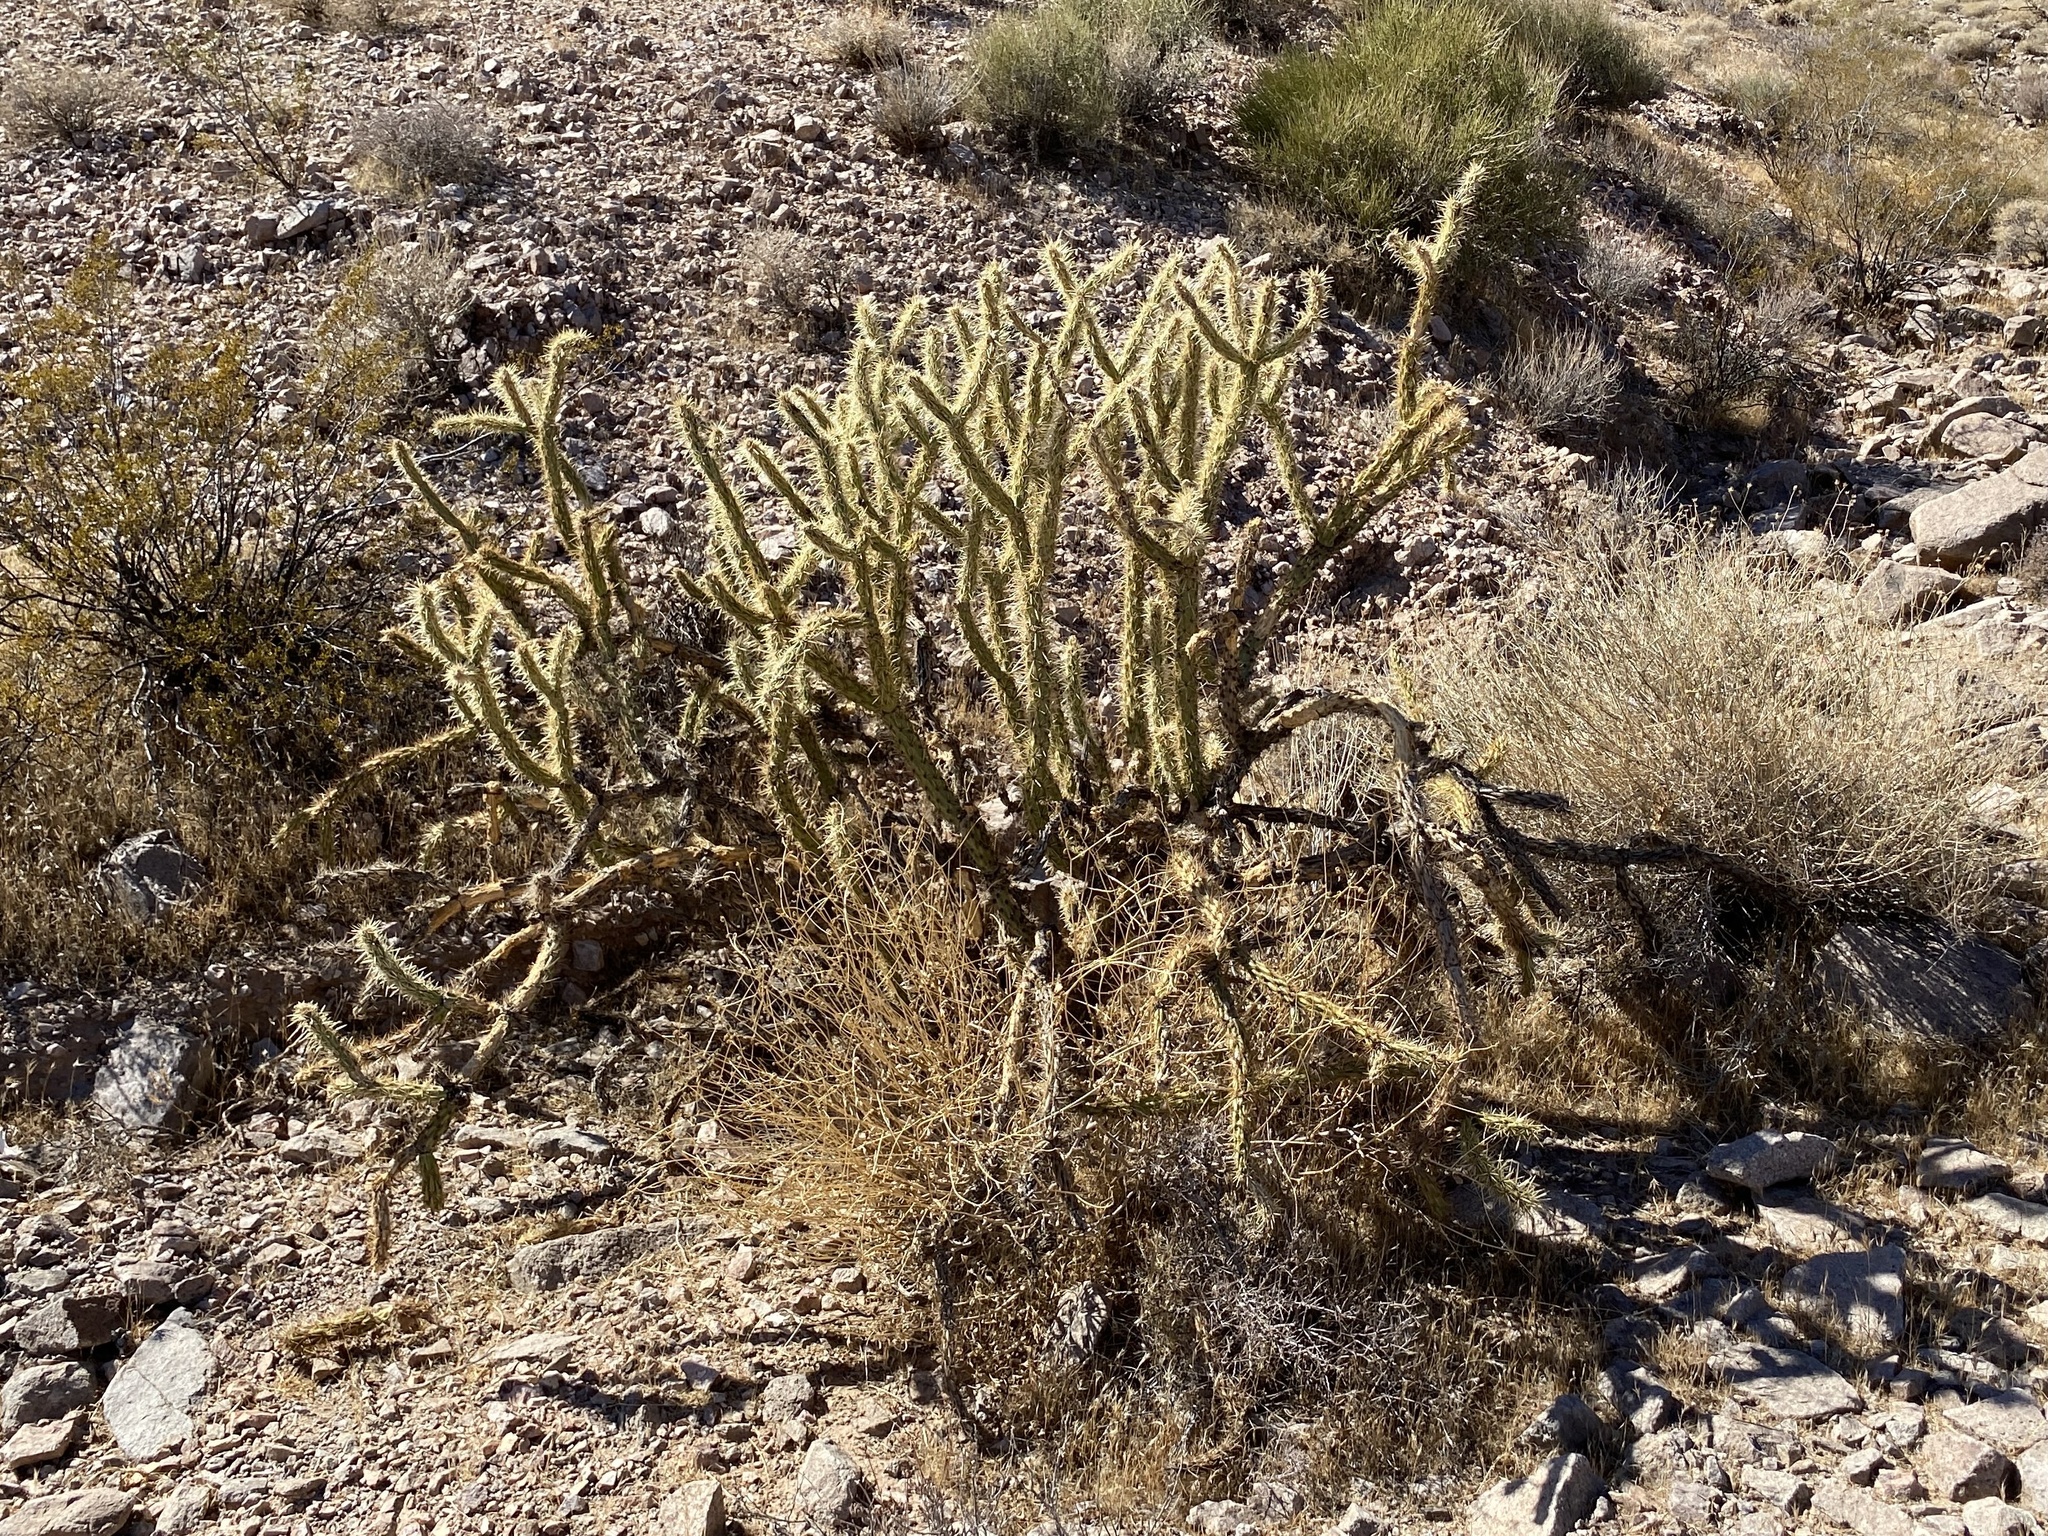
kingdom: Plantae
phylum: Tracheophyta
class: Magnoliopsida
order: Caryophyllales
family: Cactaceae
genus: Cylindropuntia
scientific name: Cylindropuntia acanthocarpa
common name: Buckhorn cholla
